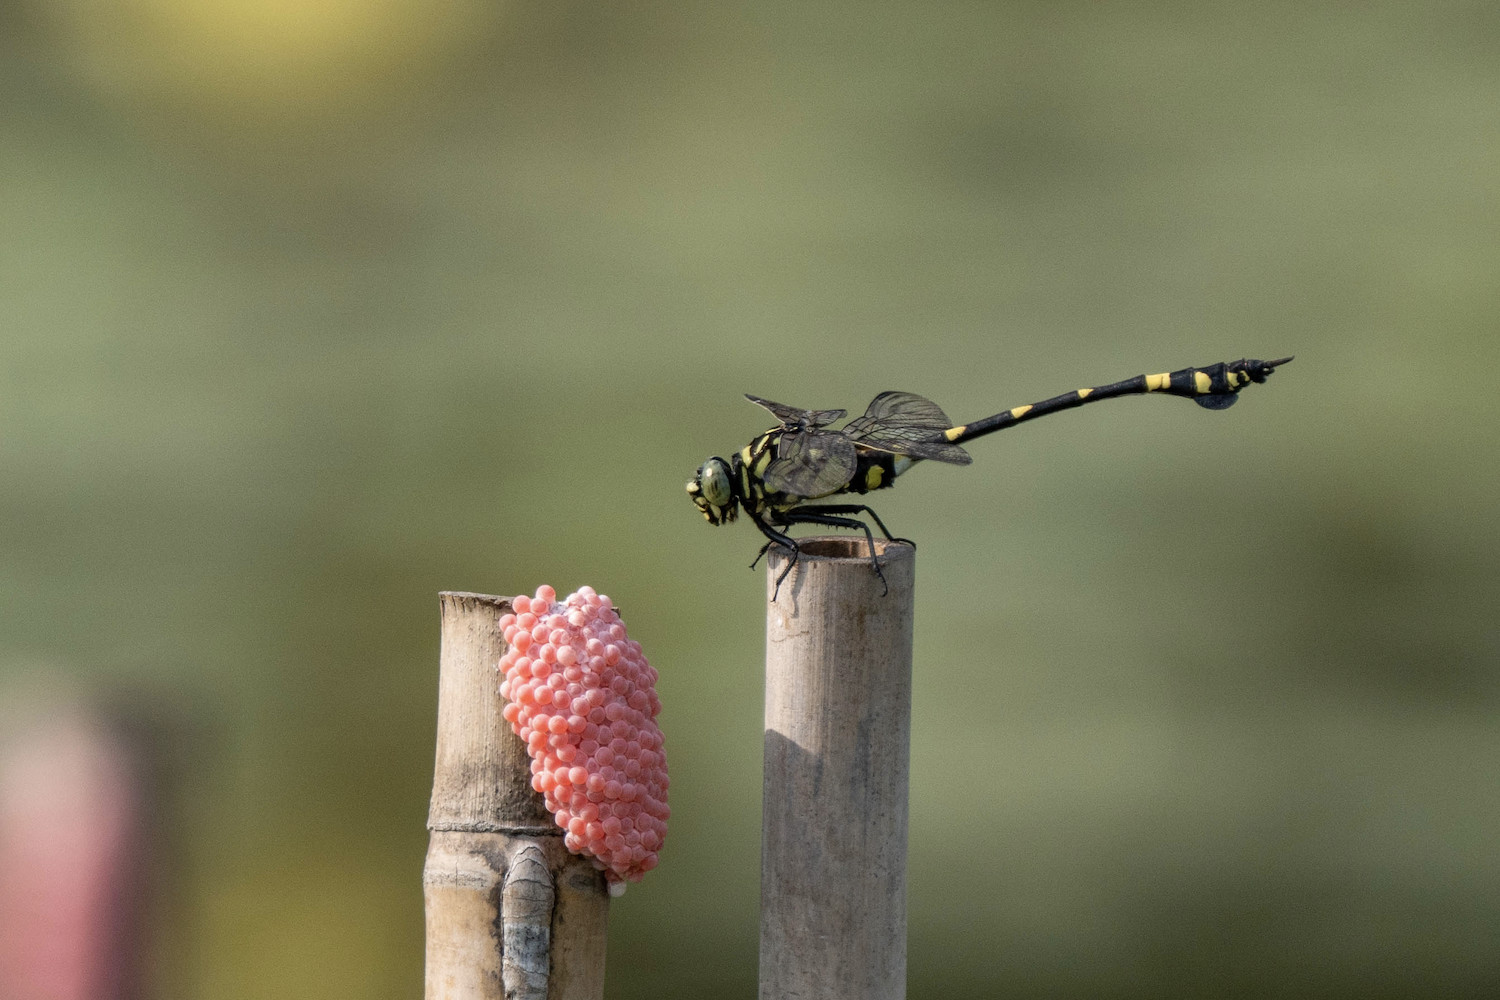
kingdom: Animalia
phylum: Arthropoda
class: Insecta
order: Odonata
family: Gomphidae
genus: Ictinogomphus
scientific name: Ictinogomphus pertinax
